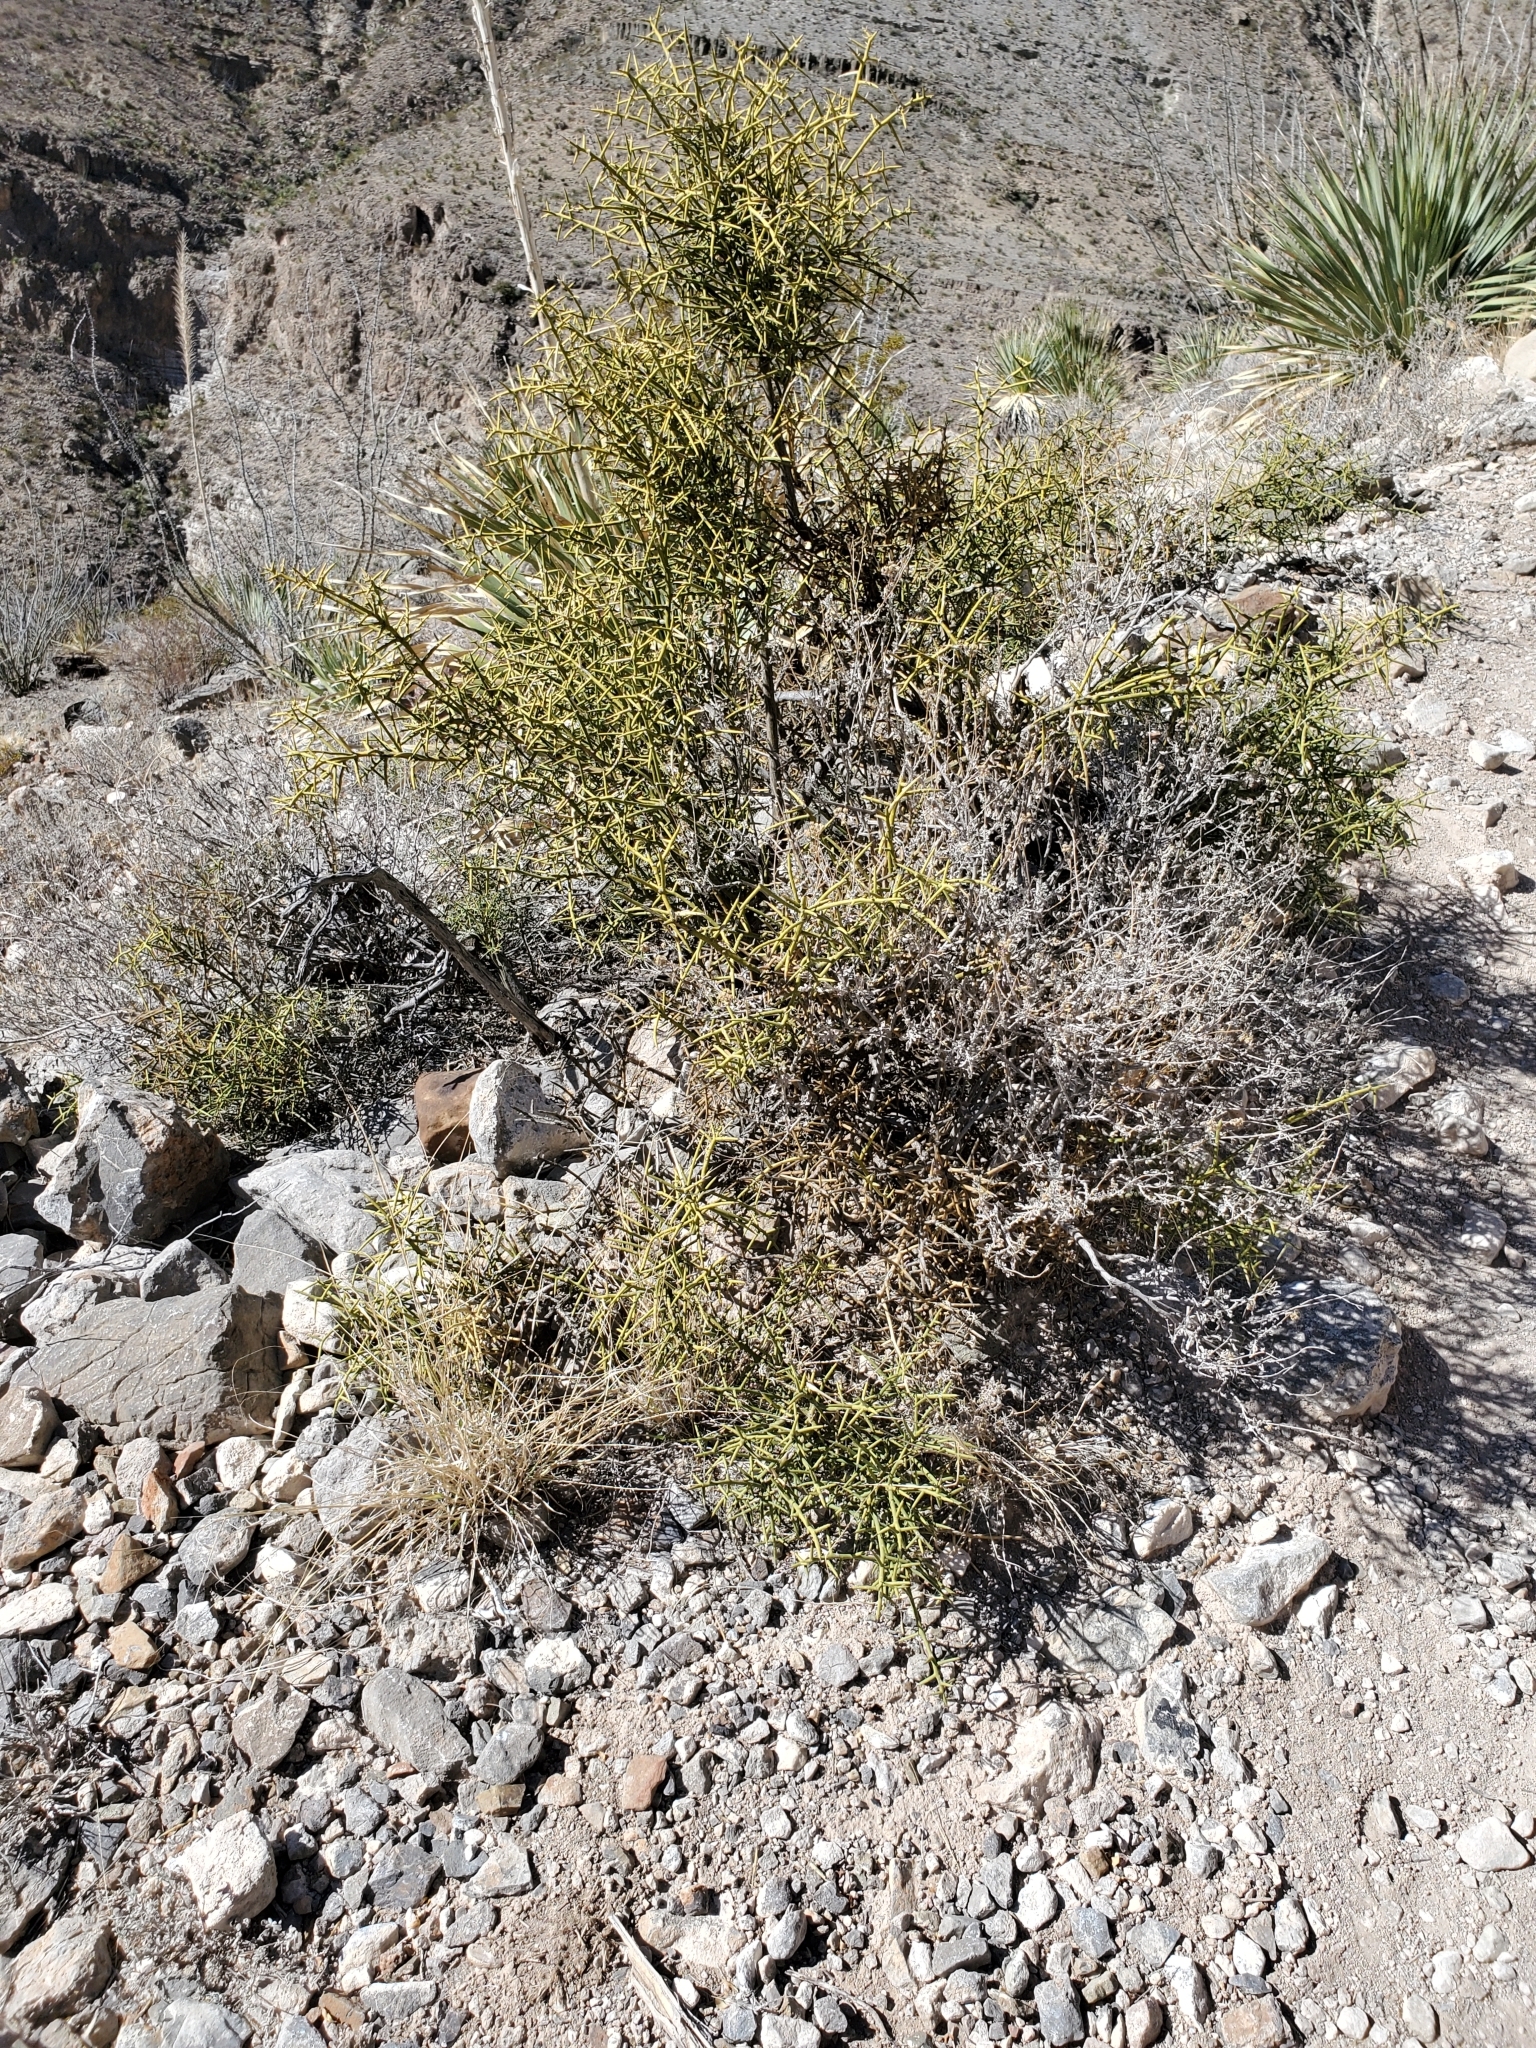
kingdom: Plantae
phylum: Tracheophyta
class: Magnoliopsida
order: Brassicales
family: Koeberliniaceae
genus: Koeberlinia
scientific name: Koeberlinia spinosa
